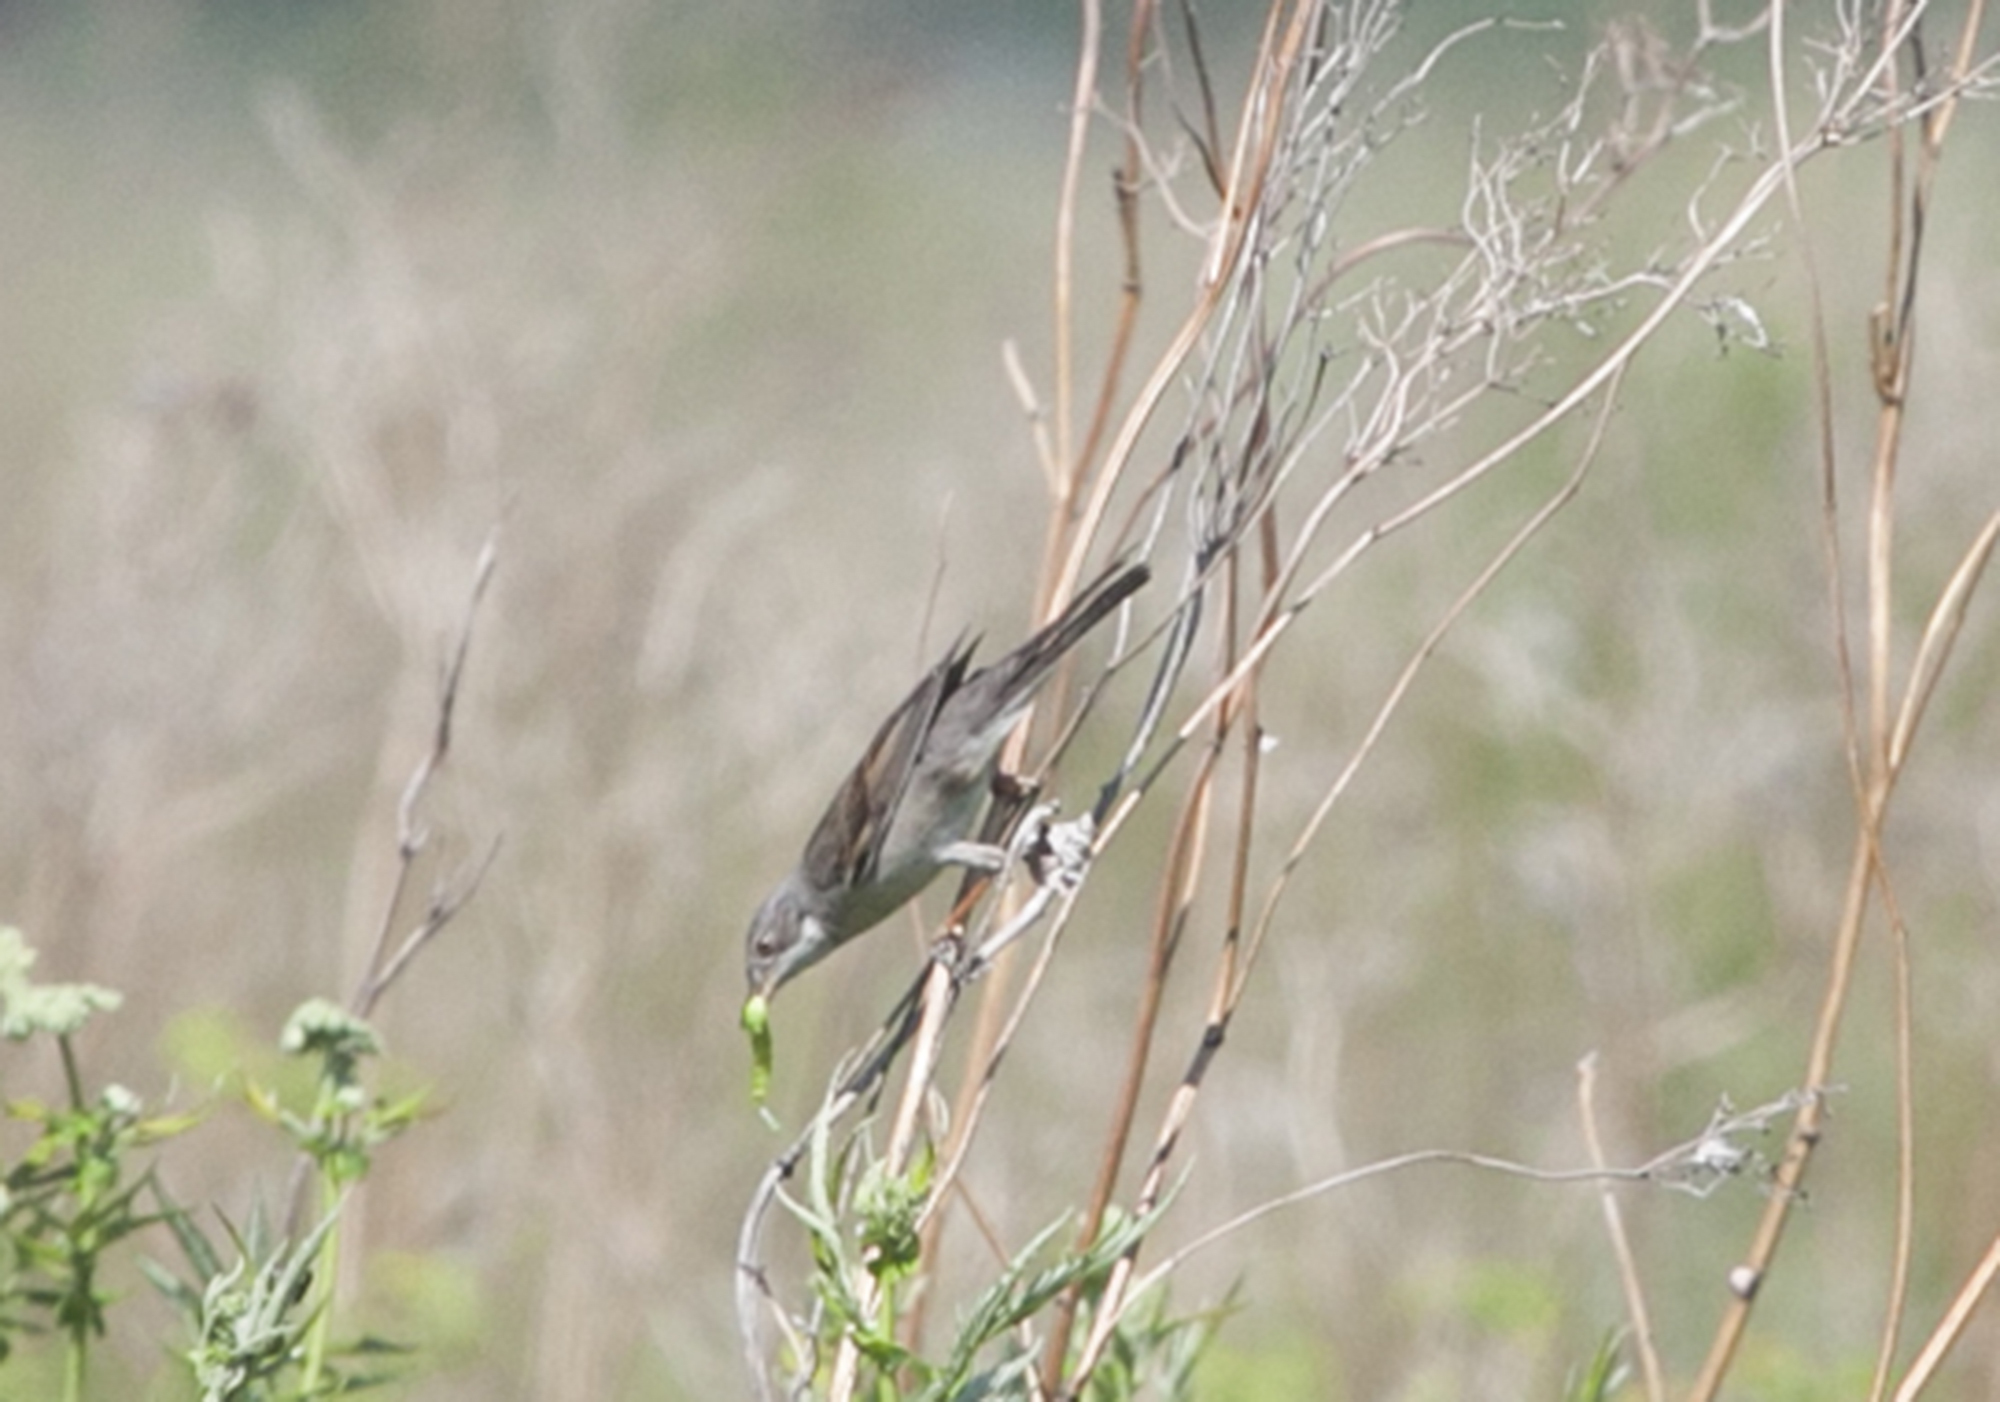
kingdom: Animalia
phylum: Chordata
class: Aves
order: Passeriformes
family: Sylviidae
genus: Sylvia
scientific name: Sylvia communis
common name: Common whitethroat
